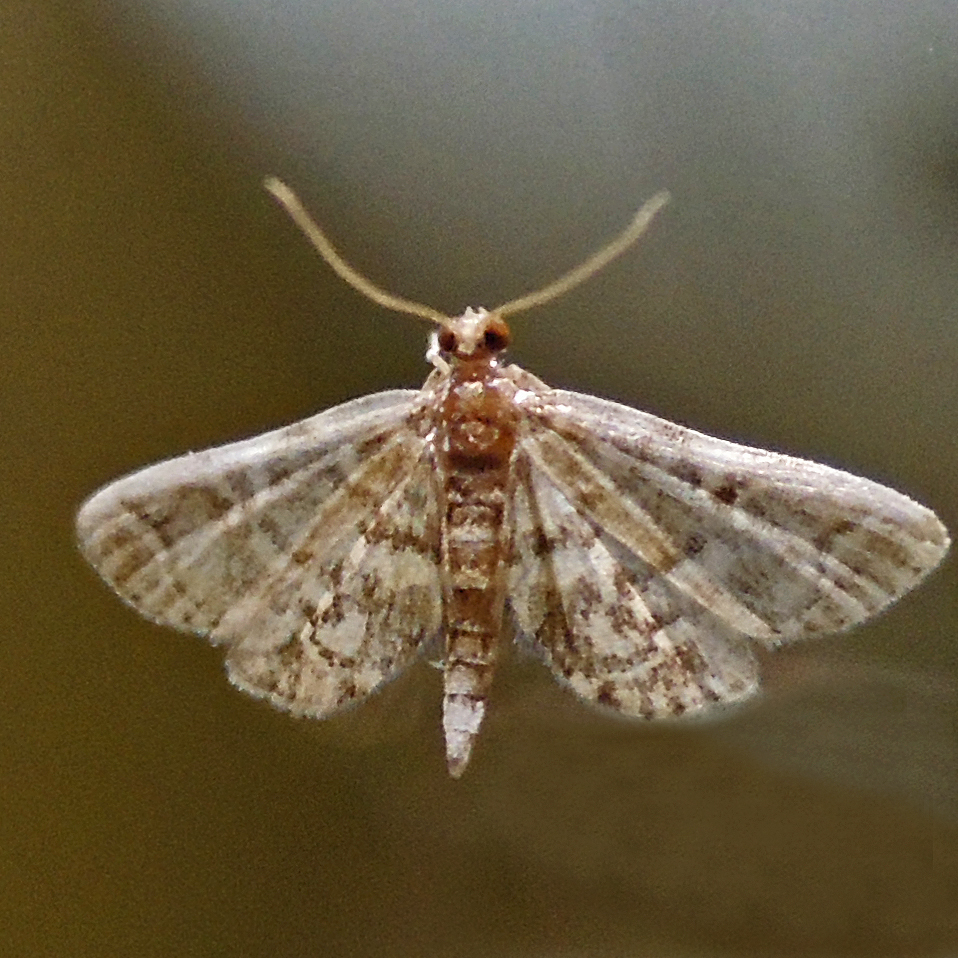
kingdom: Animalia
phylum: Arthropoda
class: Insecta
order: Lepidoptera
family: Crambidae
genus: Anageshna
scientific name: Anageshna primordialis
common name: Yellow-spotted webworm moth
